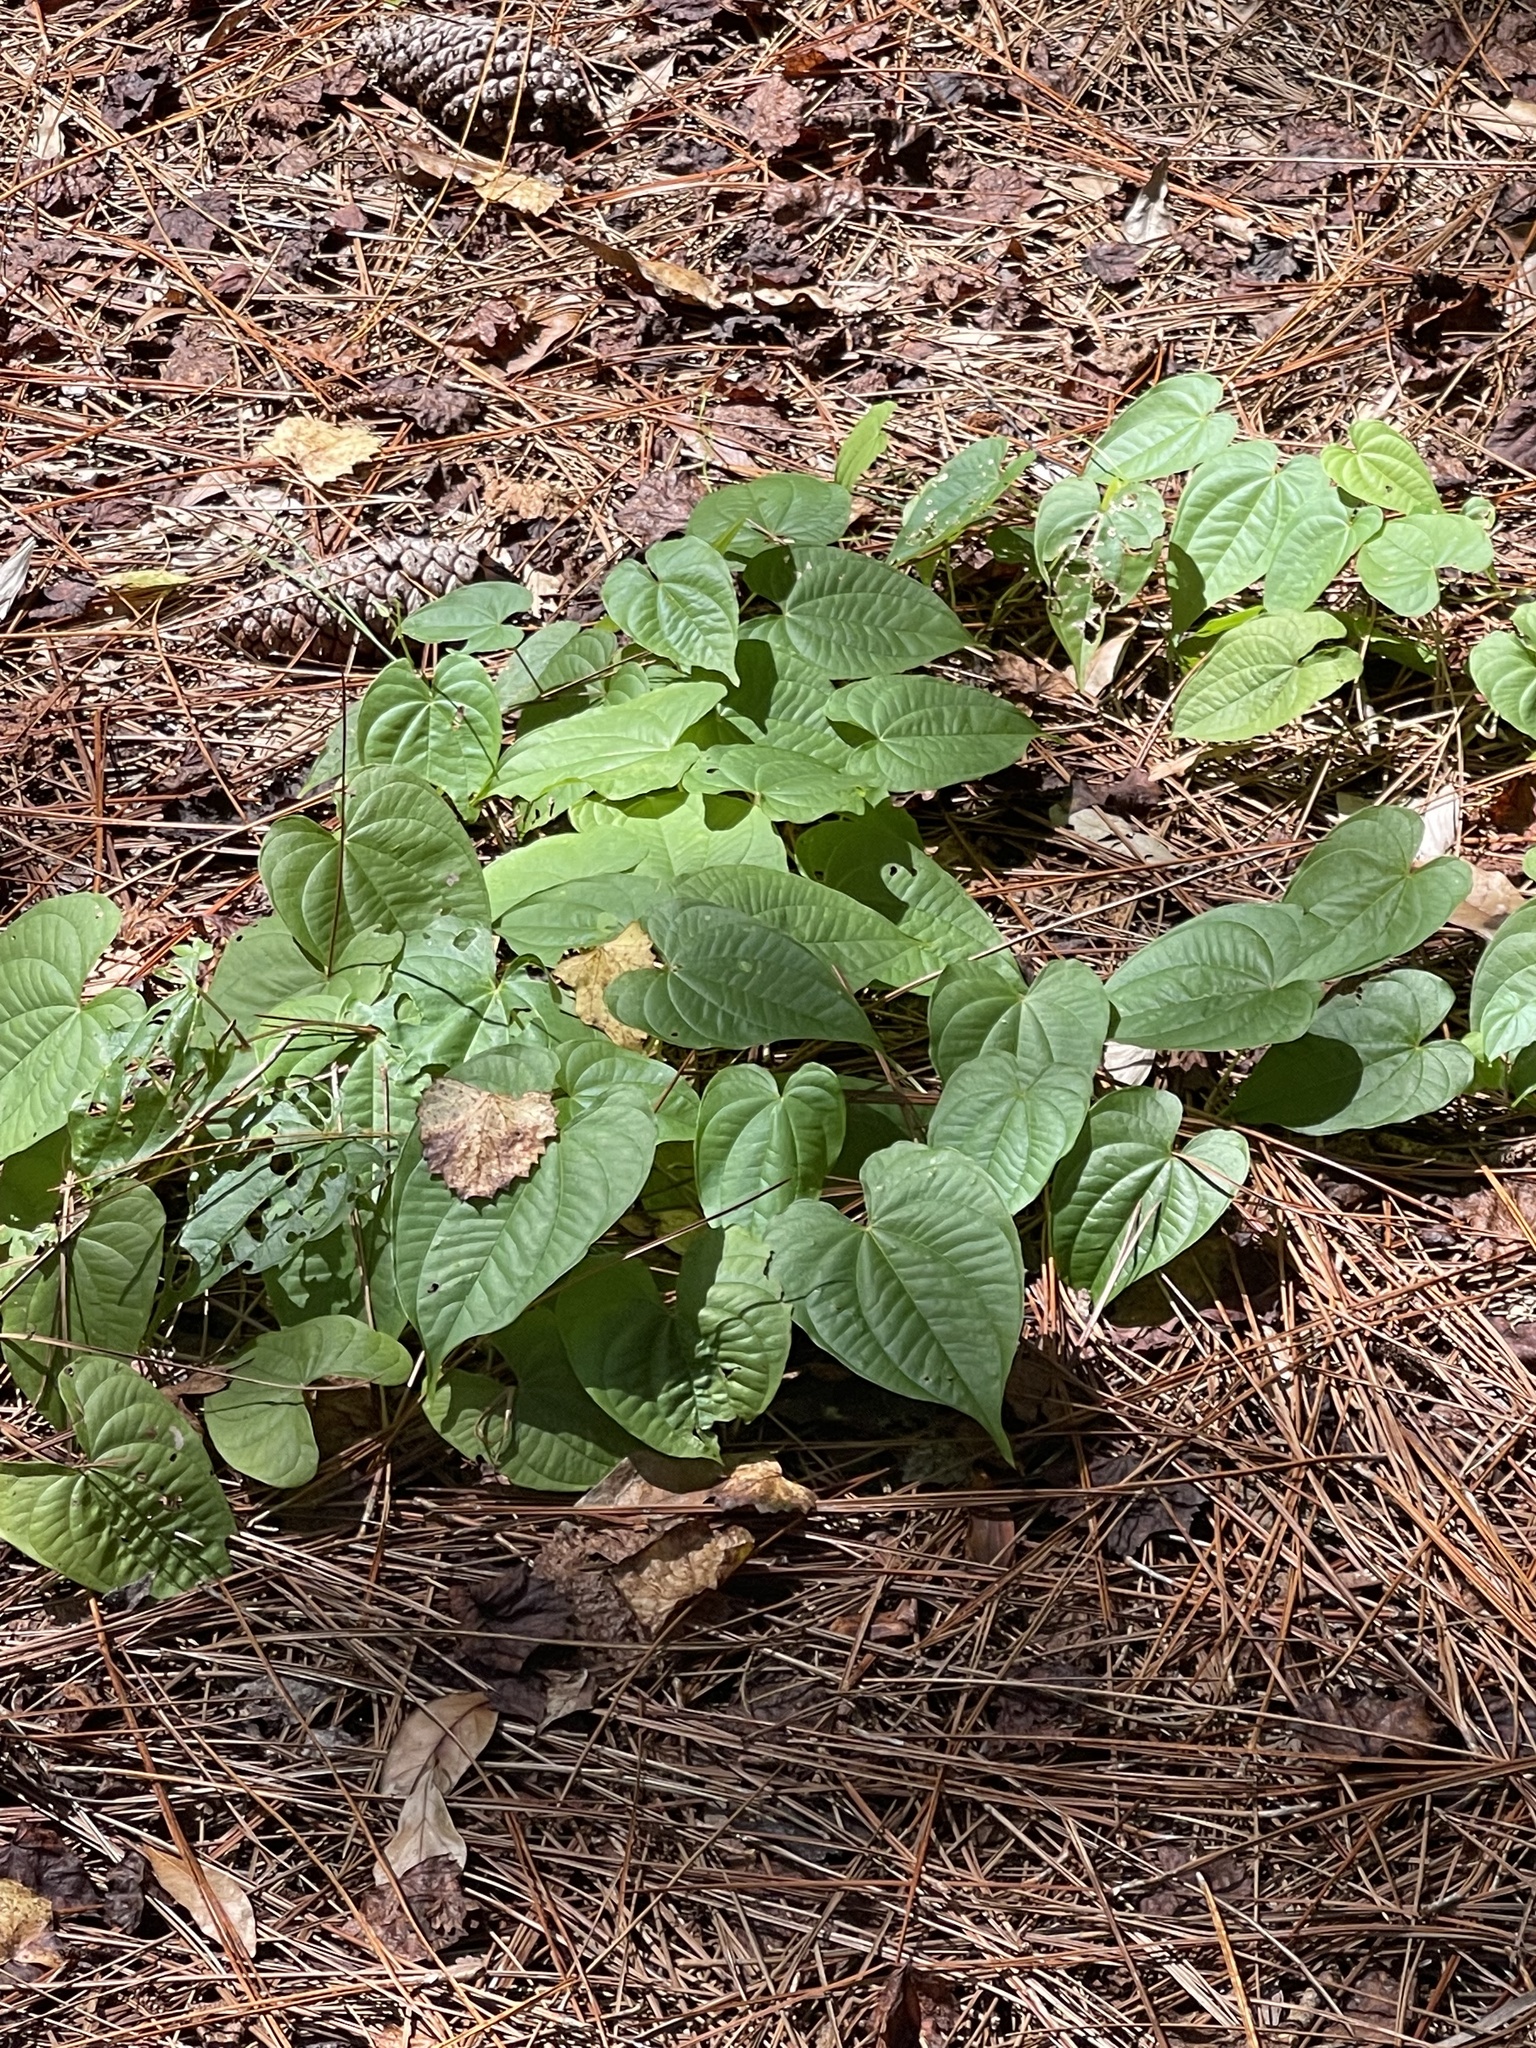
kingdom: Plantae
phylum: Tracheophyta
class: Liliopsida
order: Dioscoreales
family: Dioscoreaceae
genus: Dioscorea
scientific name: Dioscorea bulbifera
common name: Air yam
